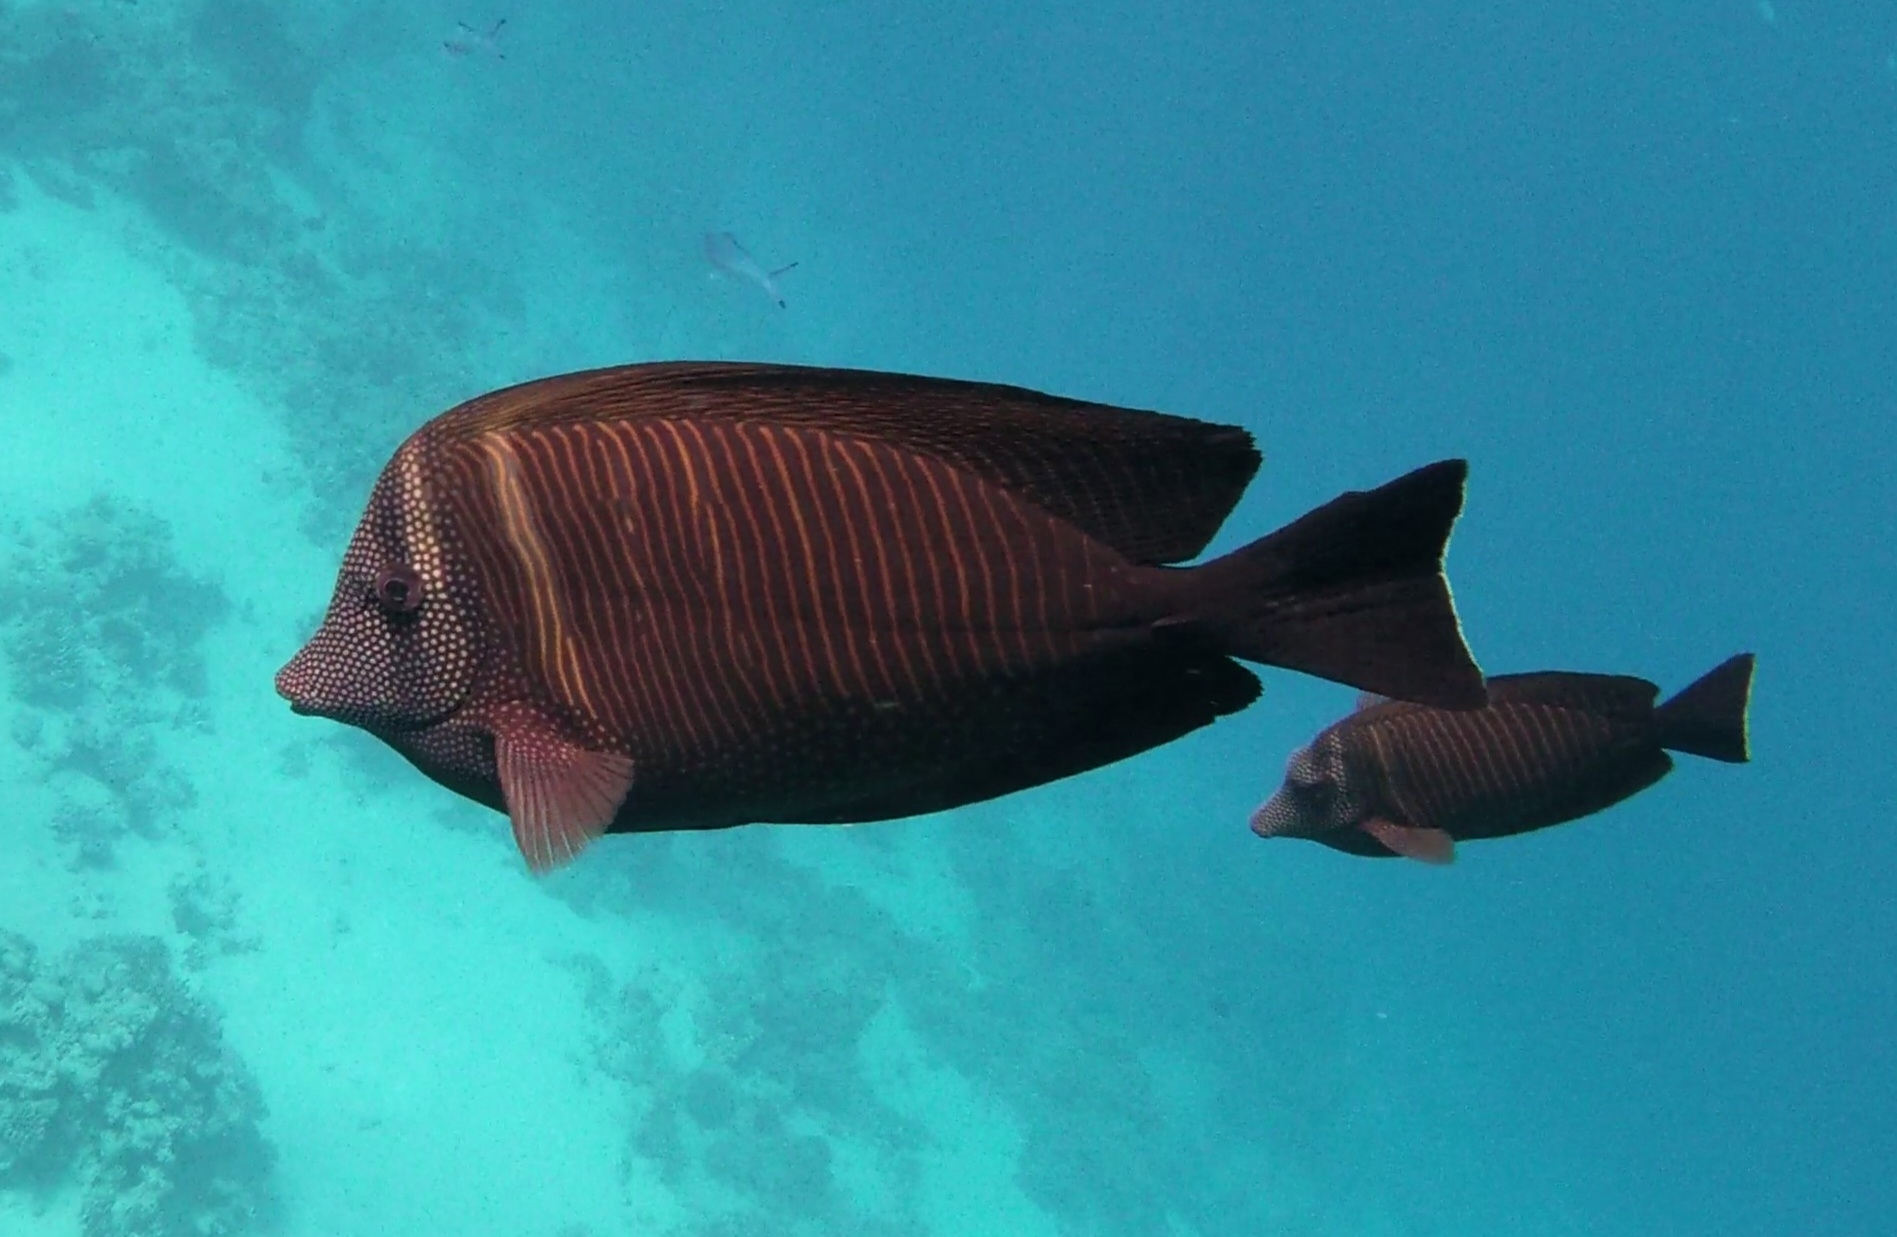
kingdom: Animalia
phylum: Chordata
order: Perciformes
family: Acanthuridae
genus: Zebrasoma
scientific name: Zebrasoma desjardinii
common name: Desjardin's sailfin tang
